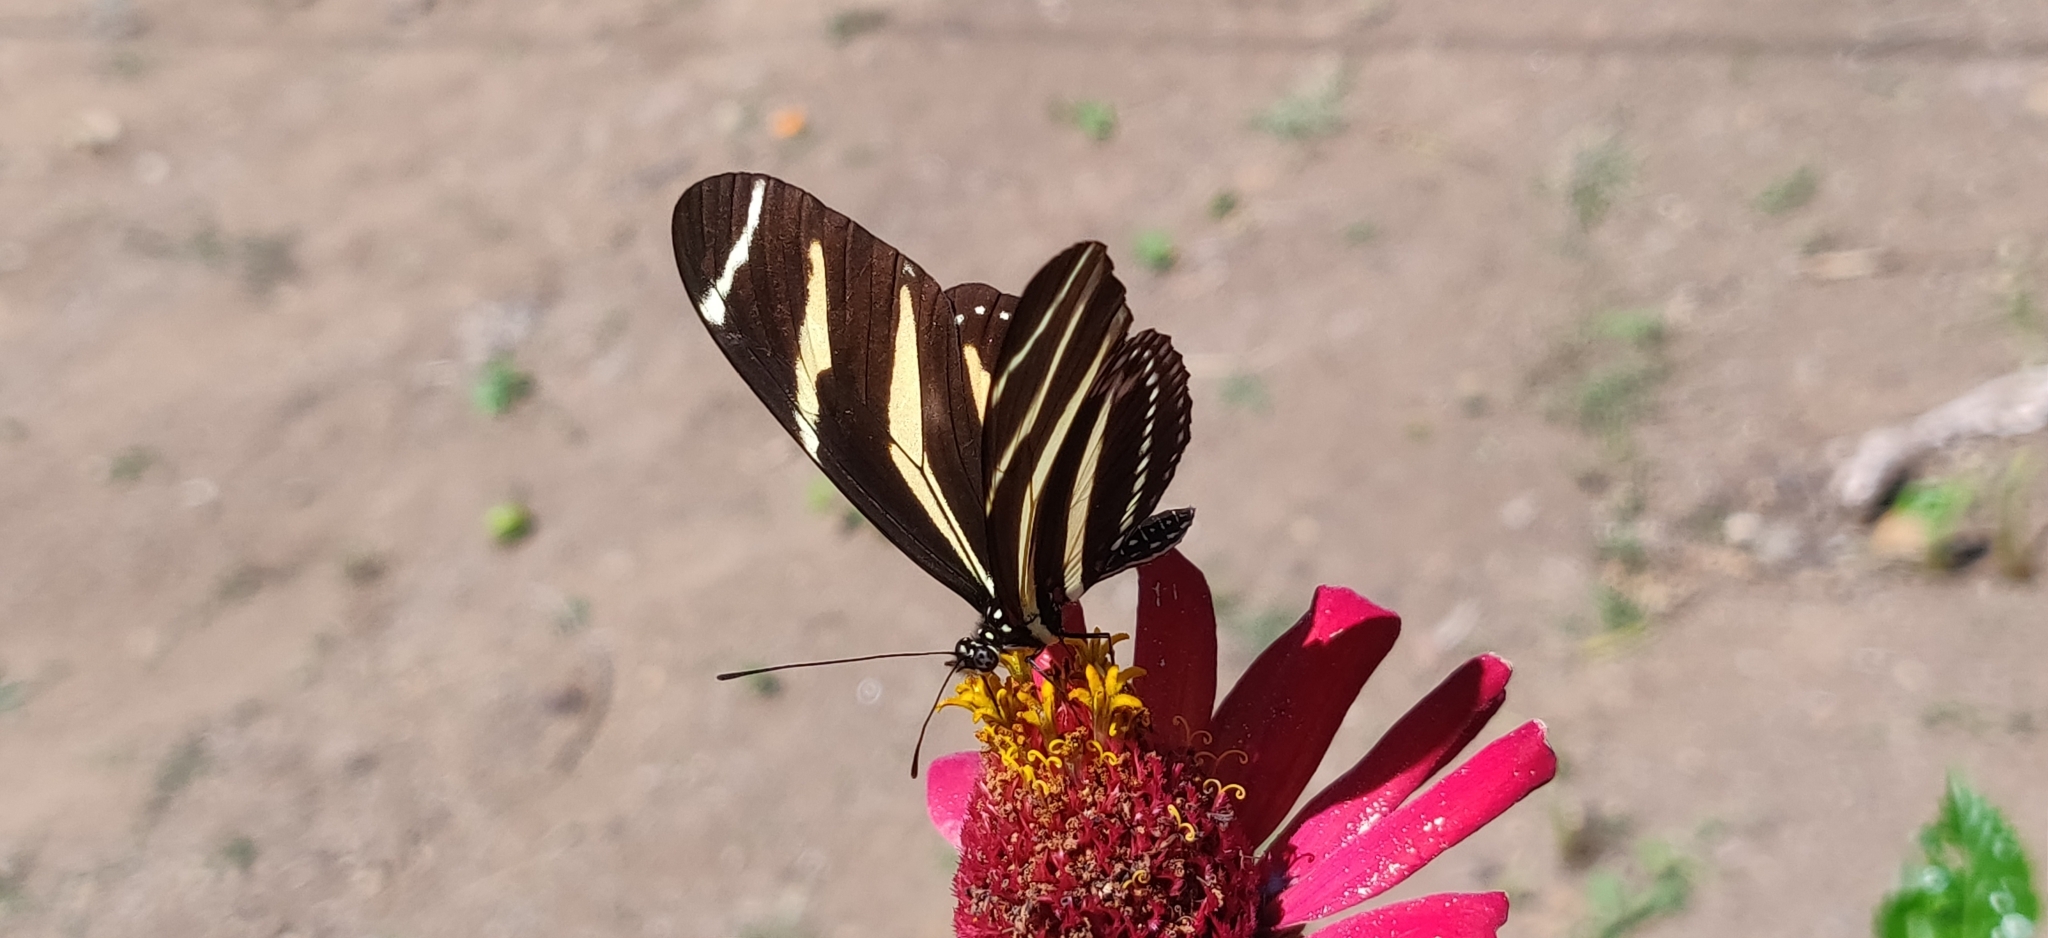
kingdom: Animalia
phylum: Arthropoda
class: Insecta
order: Lepidoptera
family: Nymphalidae
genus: Heliconius
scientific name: Heliconius charithonia
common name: Zebra long wing
